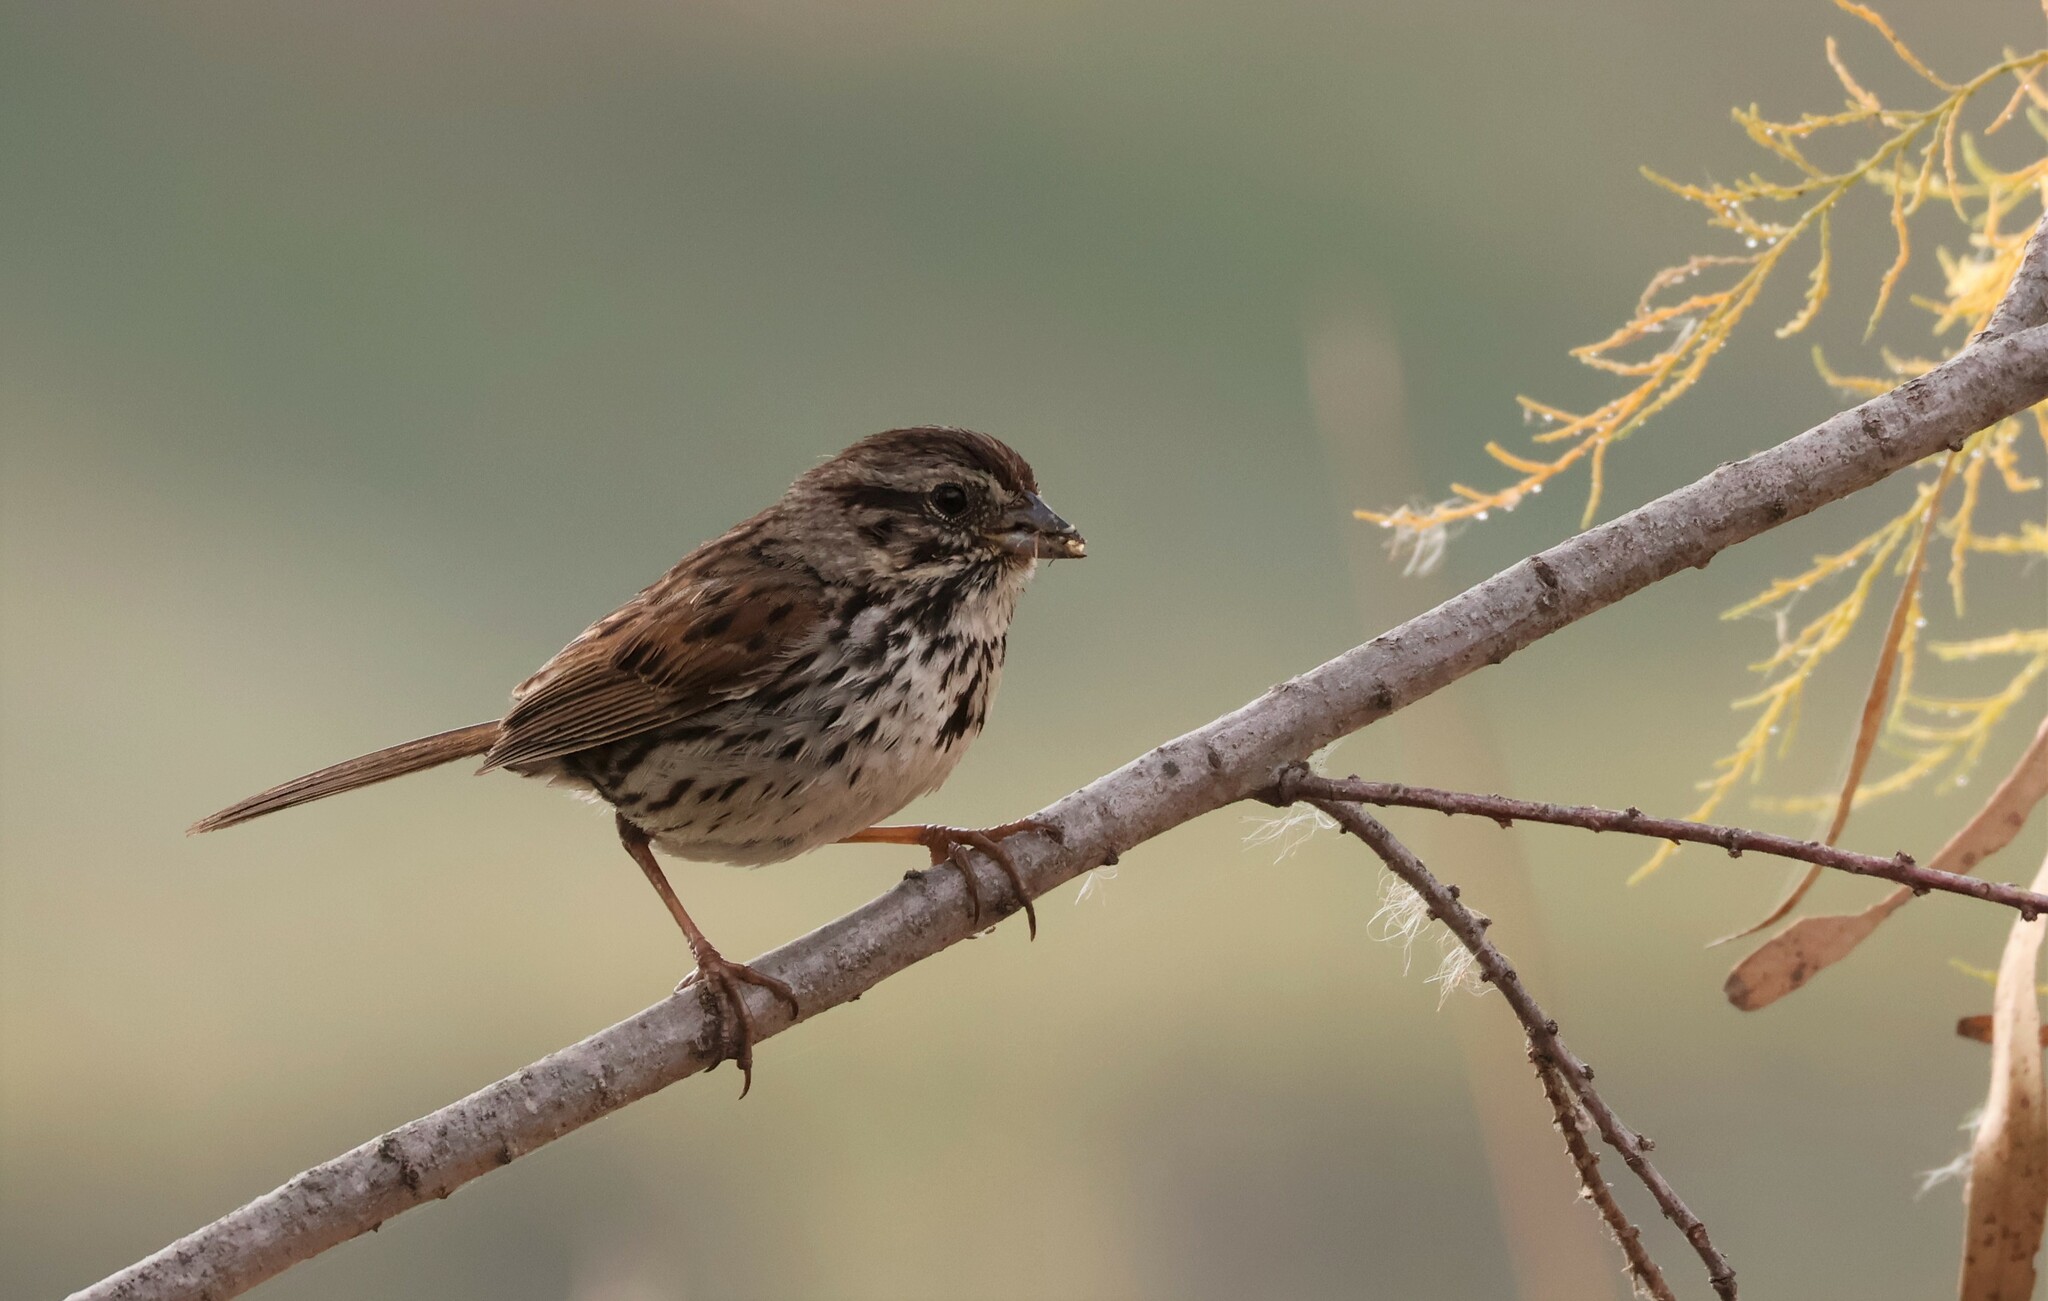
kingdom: Animalia
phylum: Chordata
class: Aves
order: Passeriformes
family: Passerellidae
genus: Melospiza
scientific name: Melospiza melodia
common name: Song sparrow
